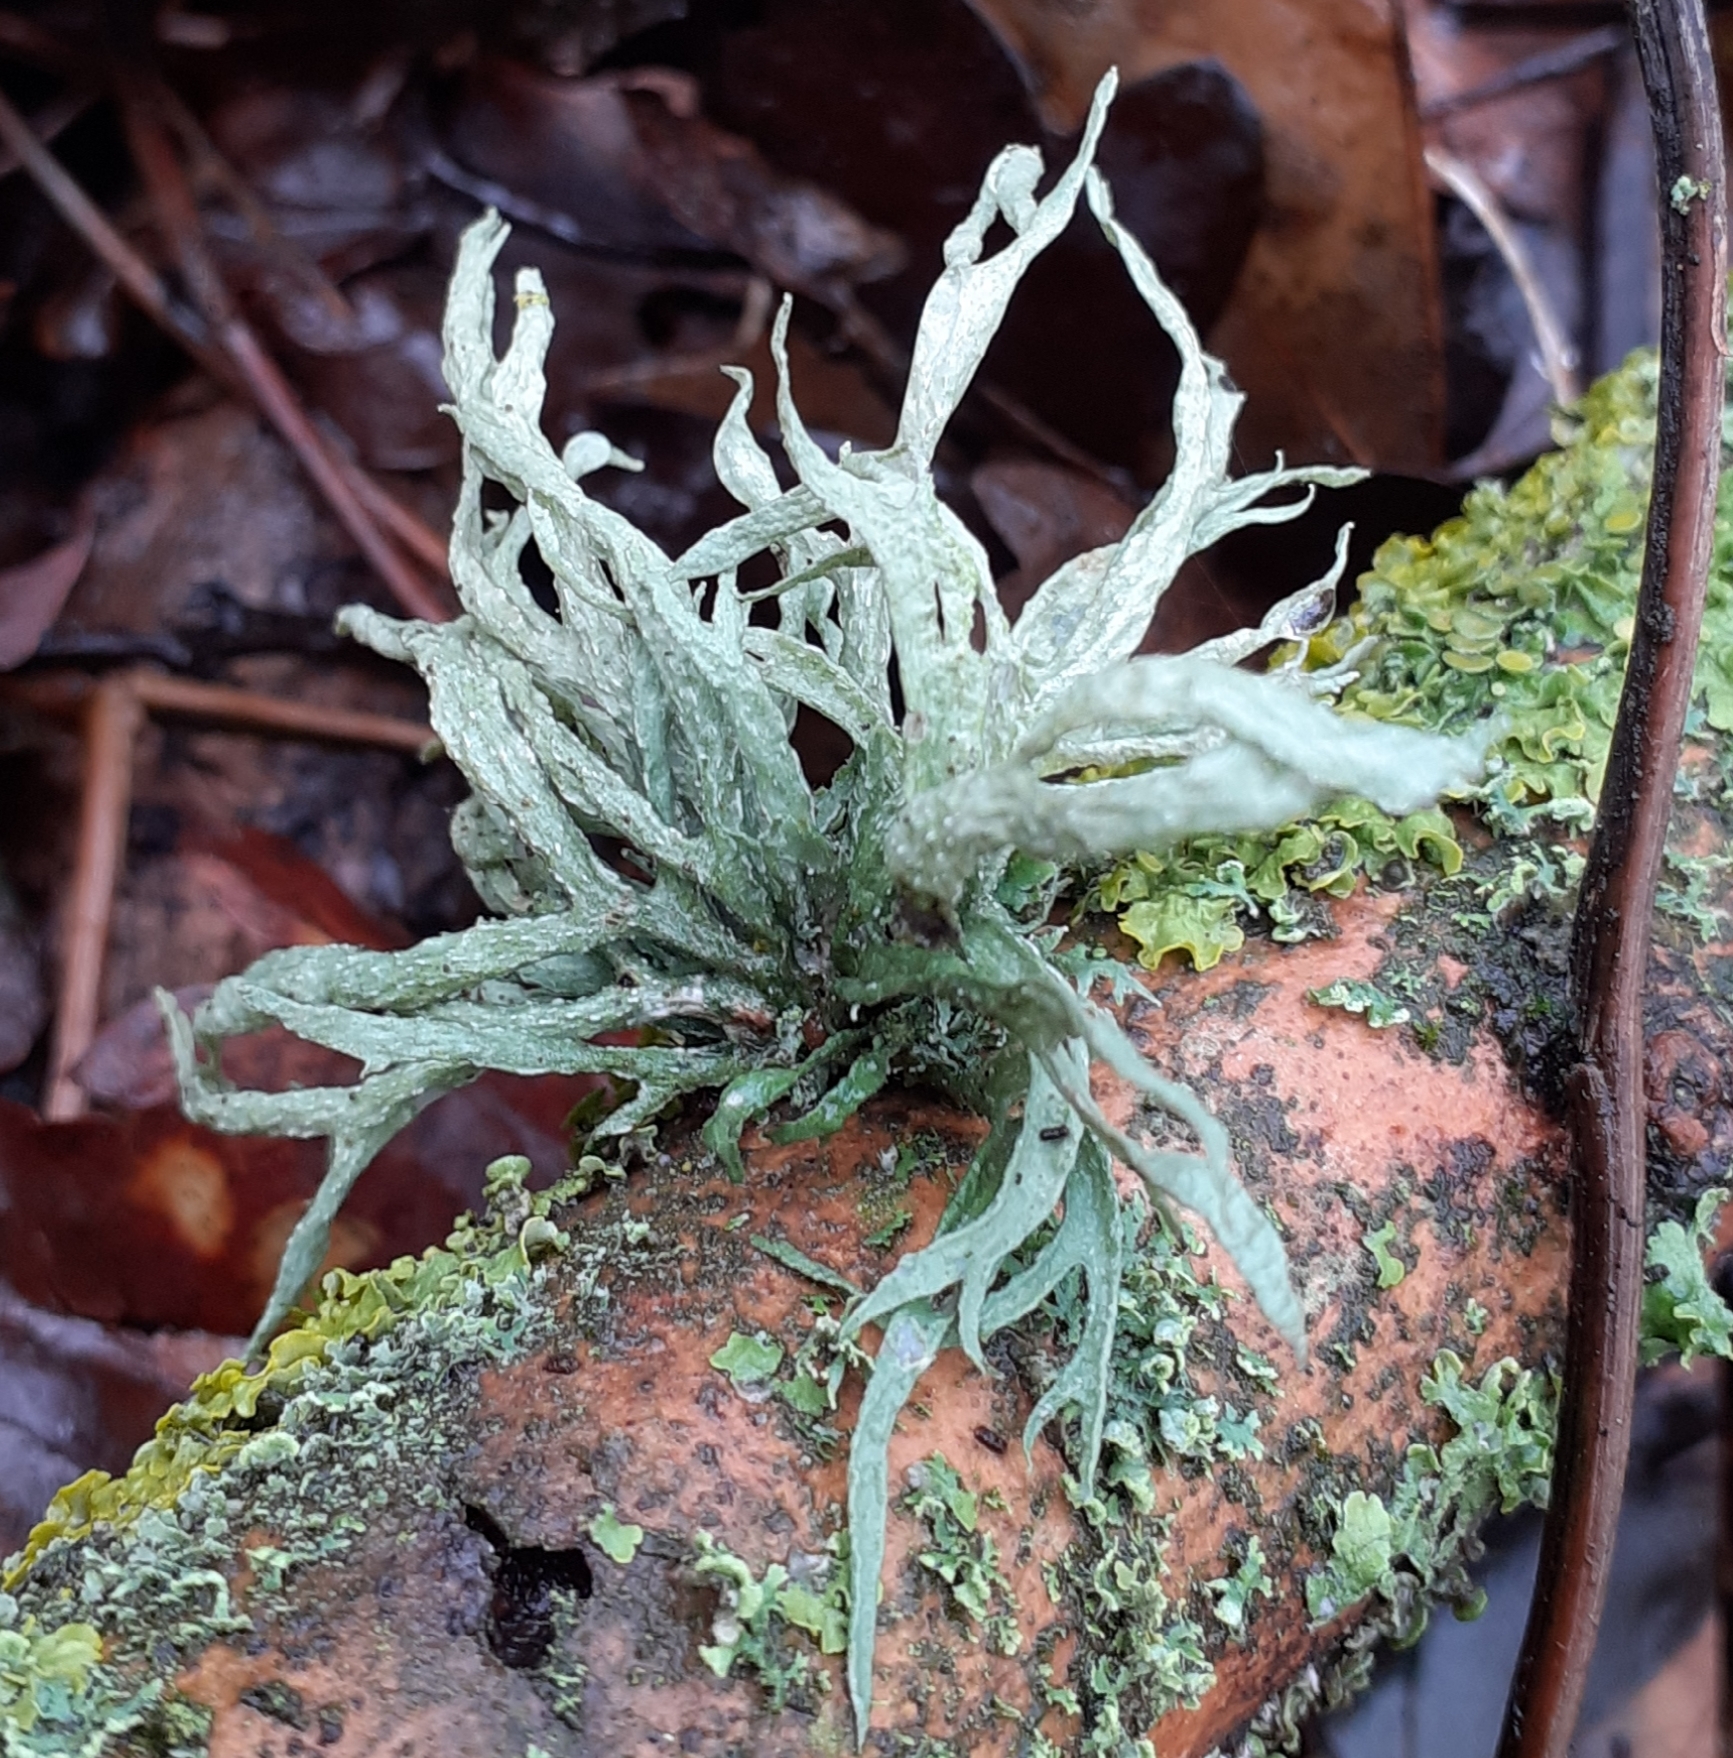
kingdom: Fungi
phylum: Ascomycota
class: Lecanoromycetes
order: Lecanorales
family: Ramalinaceae
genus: Ramalina
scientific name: Ramalina fraxinea
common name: Cartilage lichen
